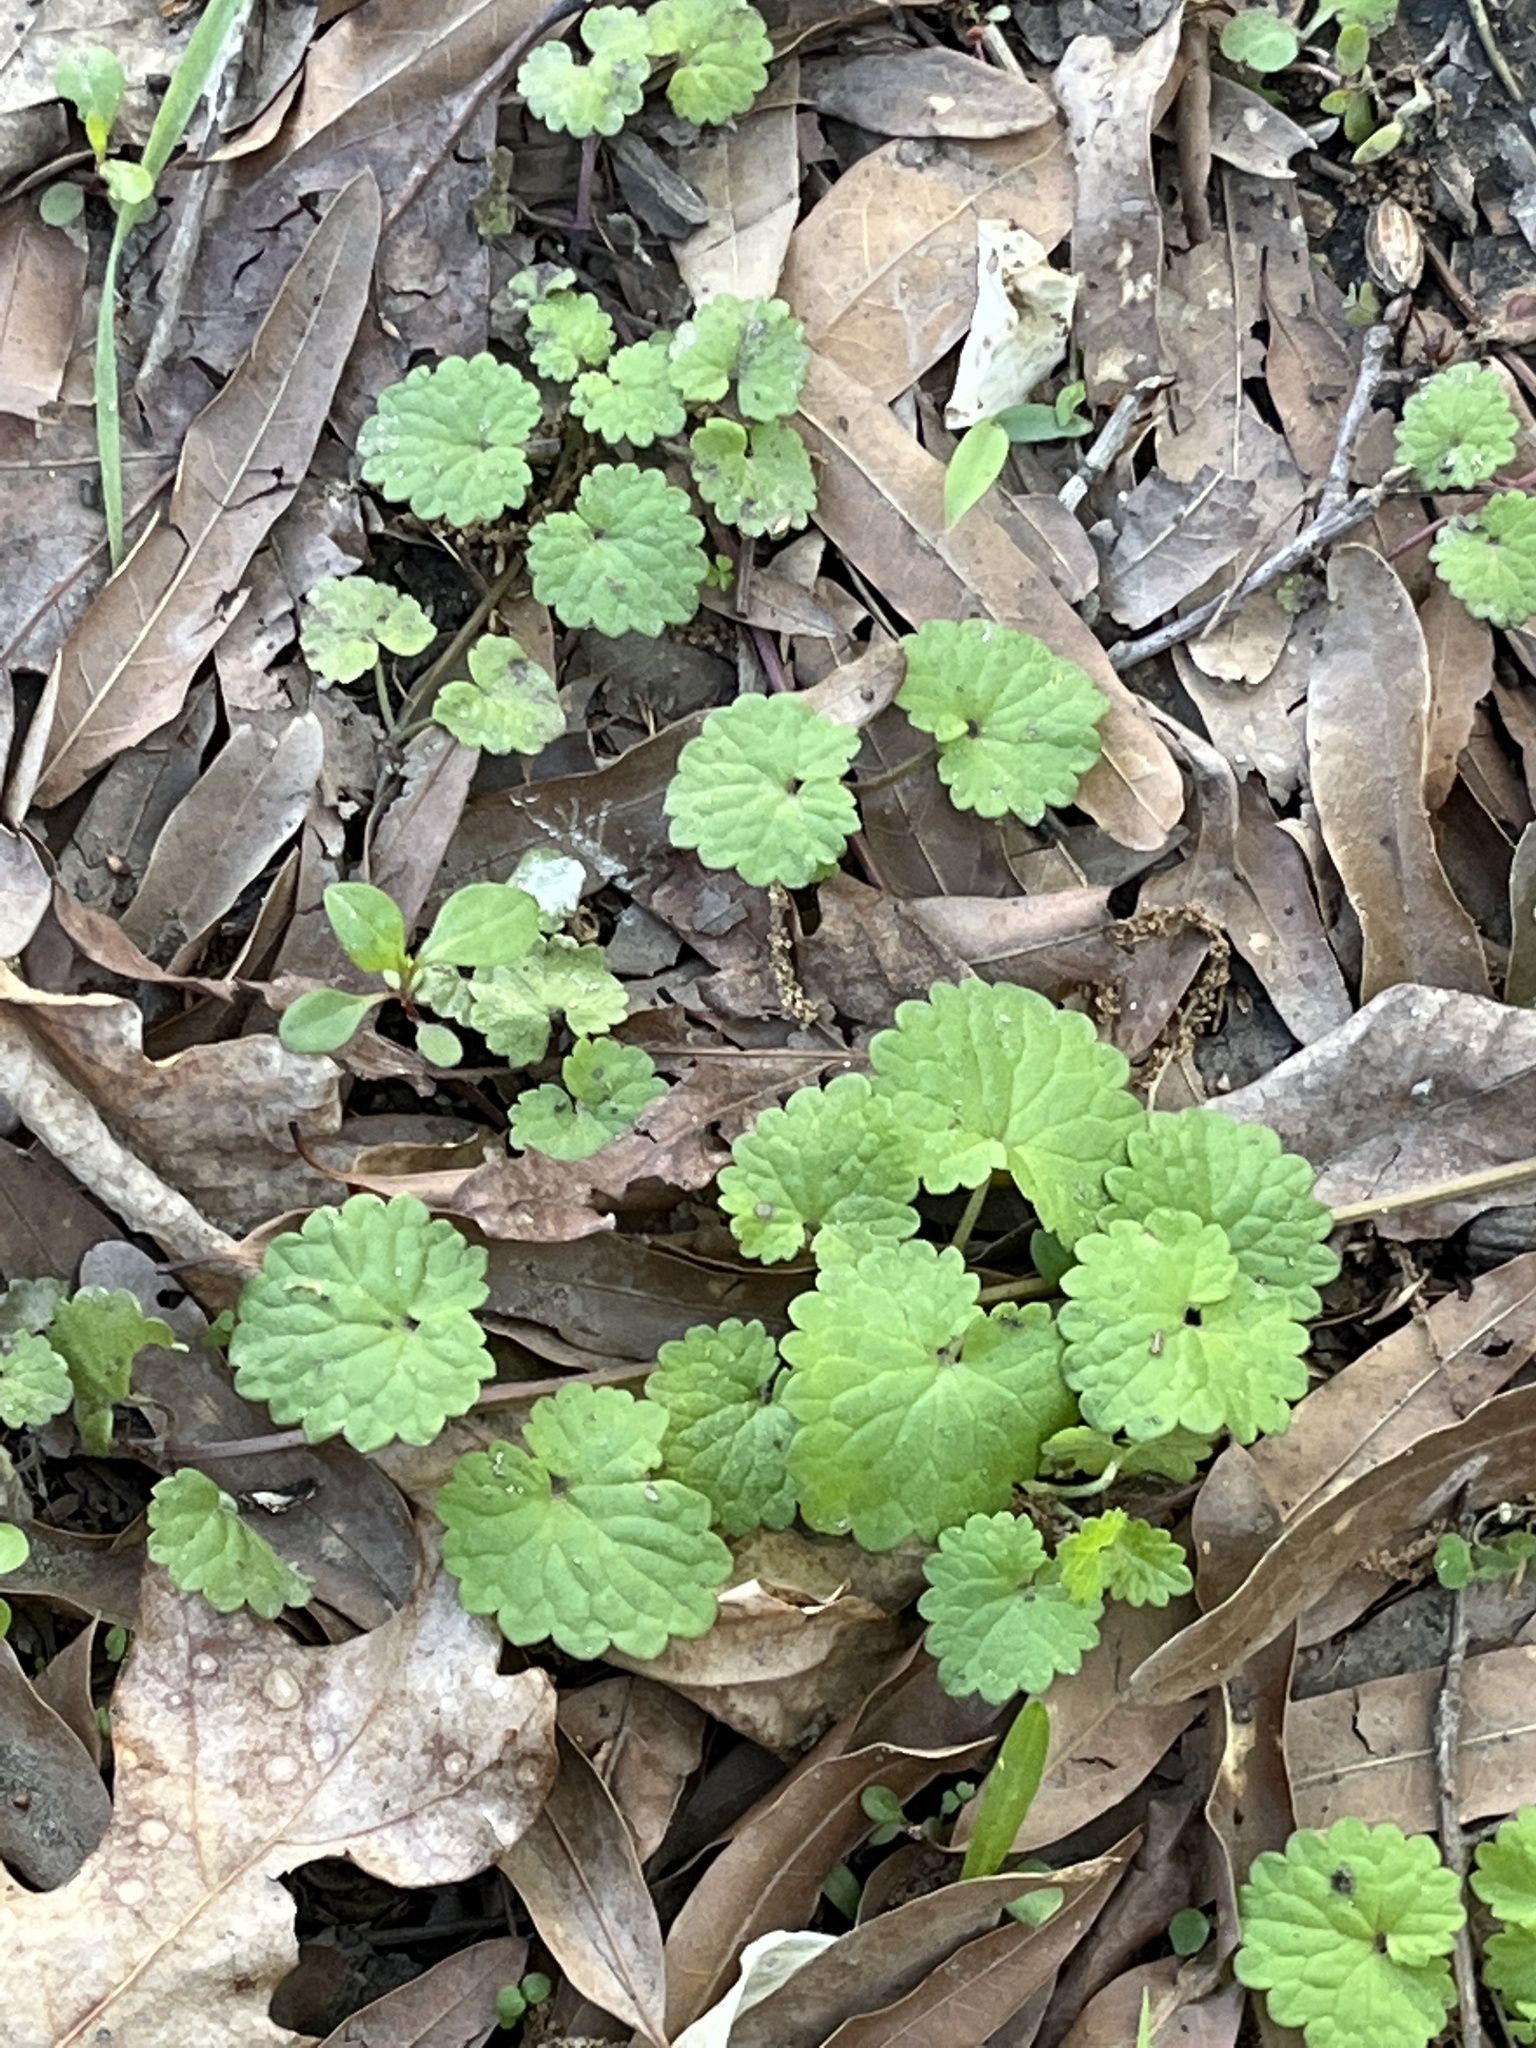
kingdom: Plantae
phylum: Tracheophyta
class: Magnoliopsida
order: Lamiales
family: Lamiaceae
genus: Glechoma
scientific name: Glechoma hederacea
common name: Ground ivy
